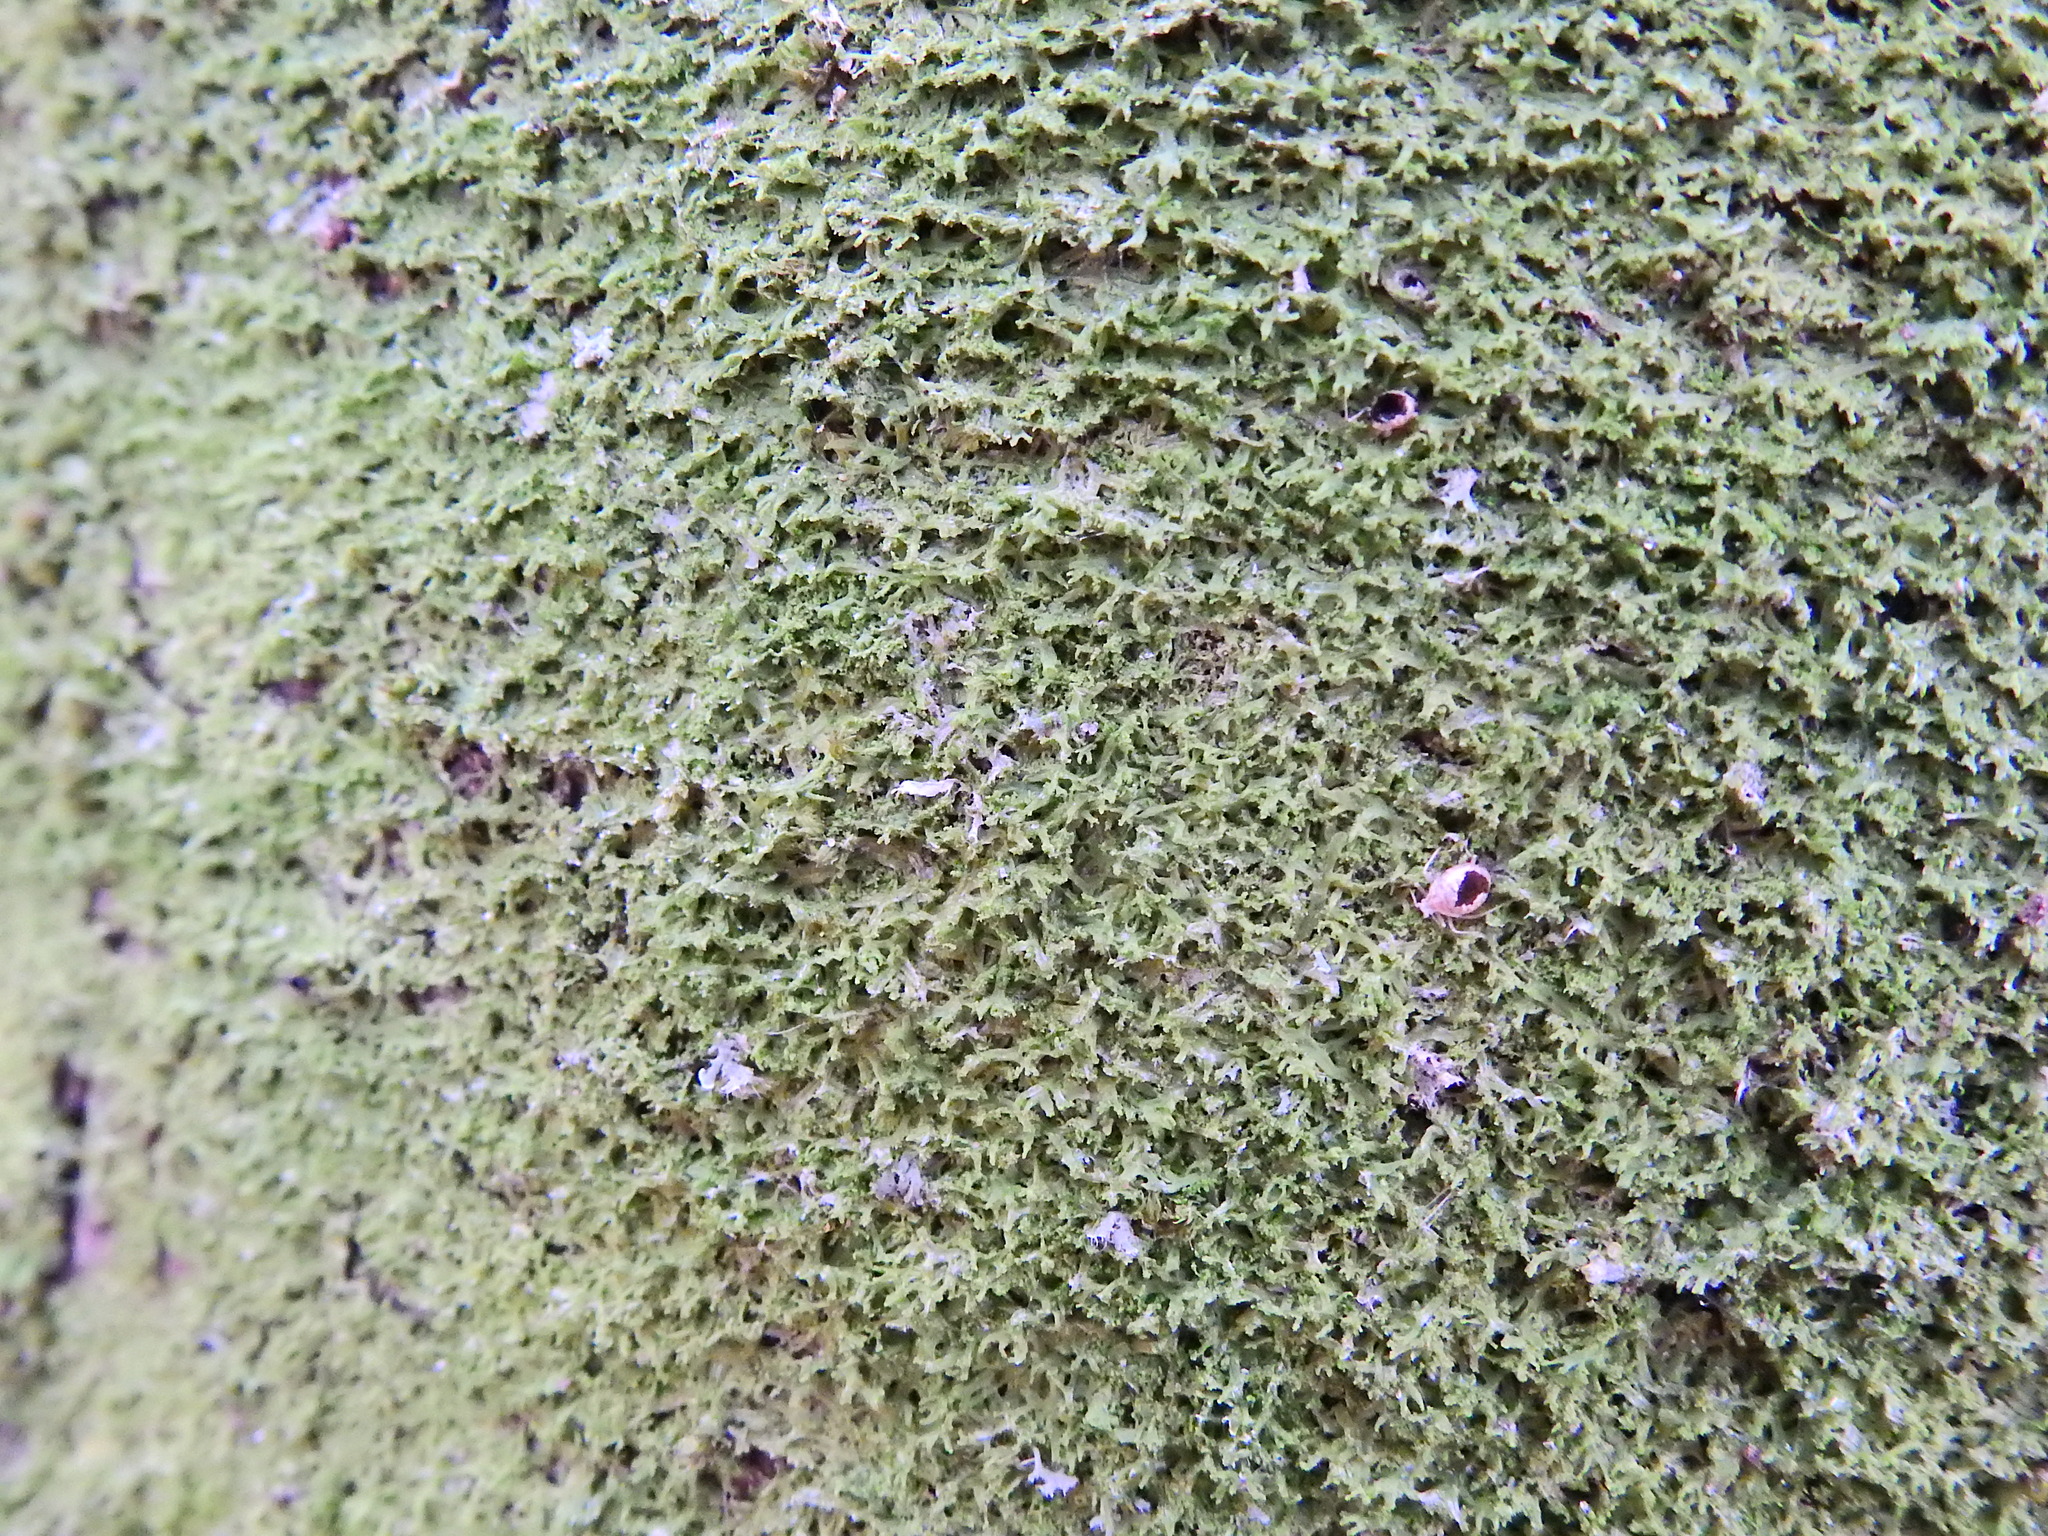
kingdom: Plantae
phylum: Marchantiophyta
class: Jungermanniopsida
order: Metzgeriales
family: Metzgeriaceae
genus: Metzgeria
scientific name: Metzgeria violacea
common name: Blueish veilwort
